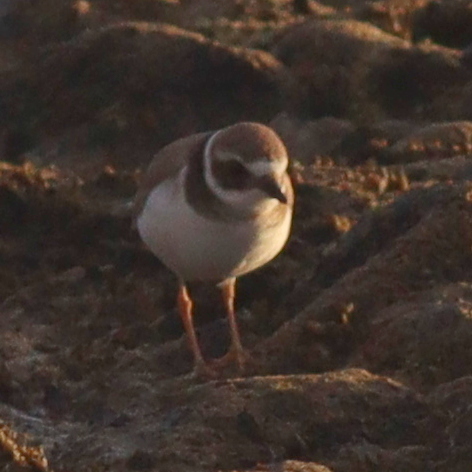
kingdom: Animalia
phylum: Chordata
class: Aves
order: Charadriiformes
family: Charadriidae
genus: Charadrius
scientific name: Charadrius hiaticula
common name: Common ringed plover
